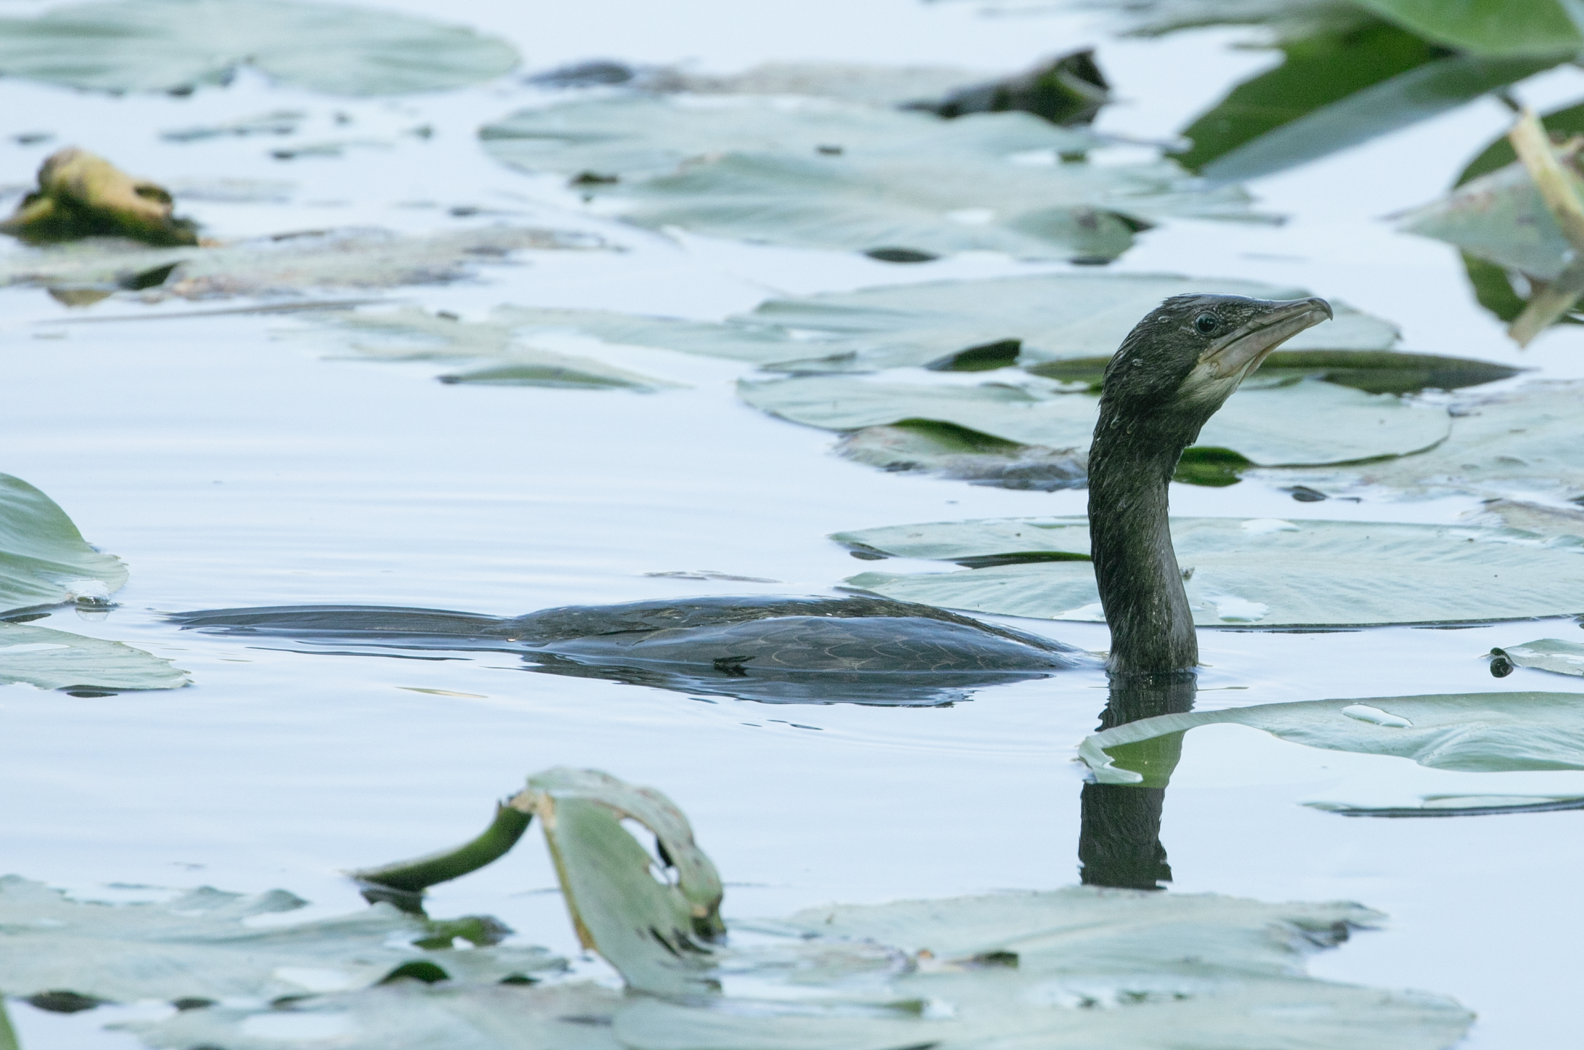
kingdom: Animalia
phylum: Chordata
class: Aves
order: Suliformes
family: Phalacrocoracidae
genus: Microcarbo
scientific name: Microcarbo pygmaeus
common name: Pygmy cormorant
